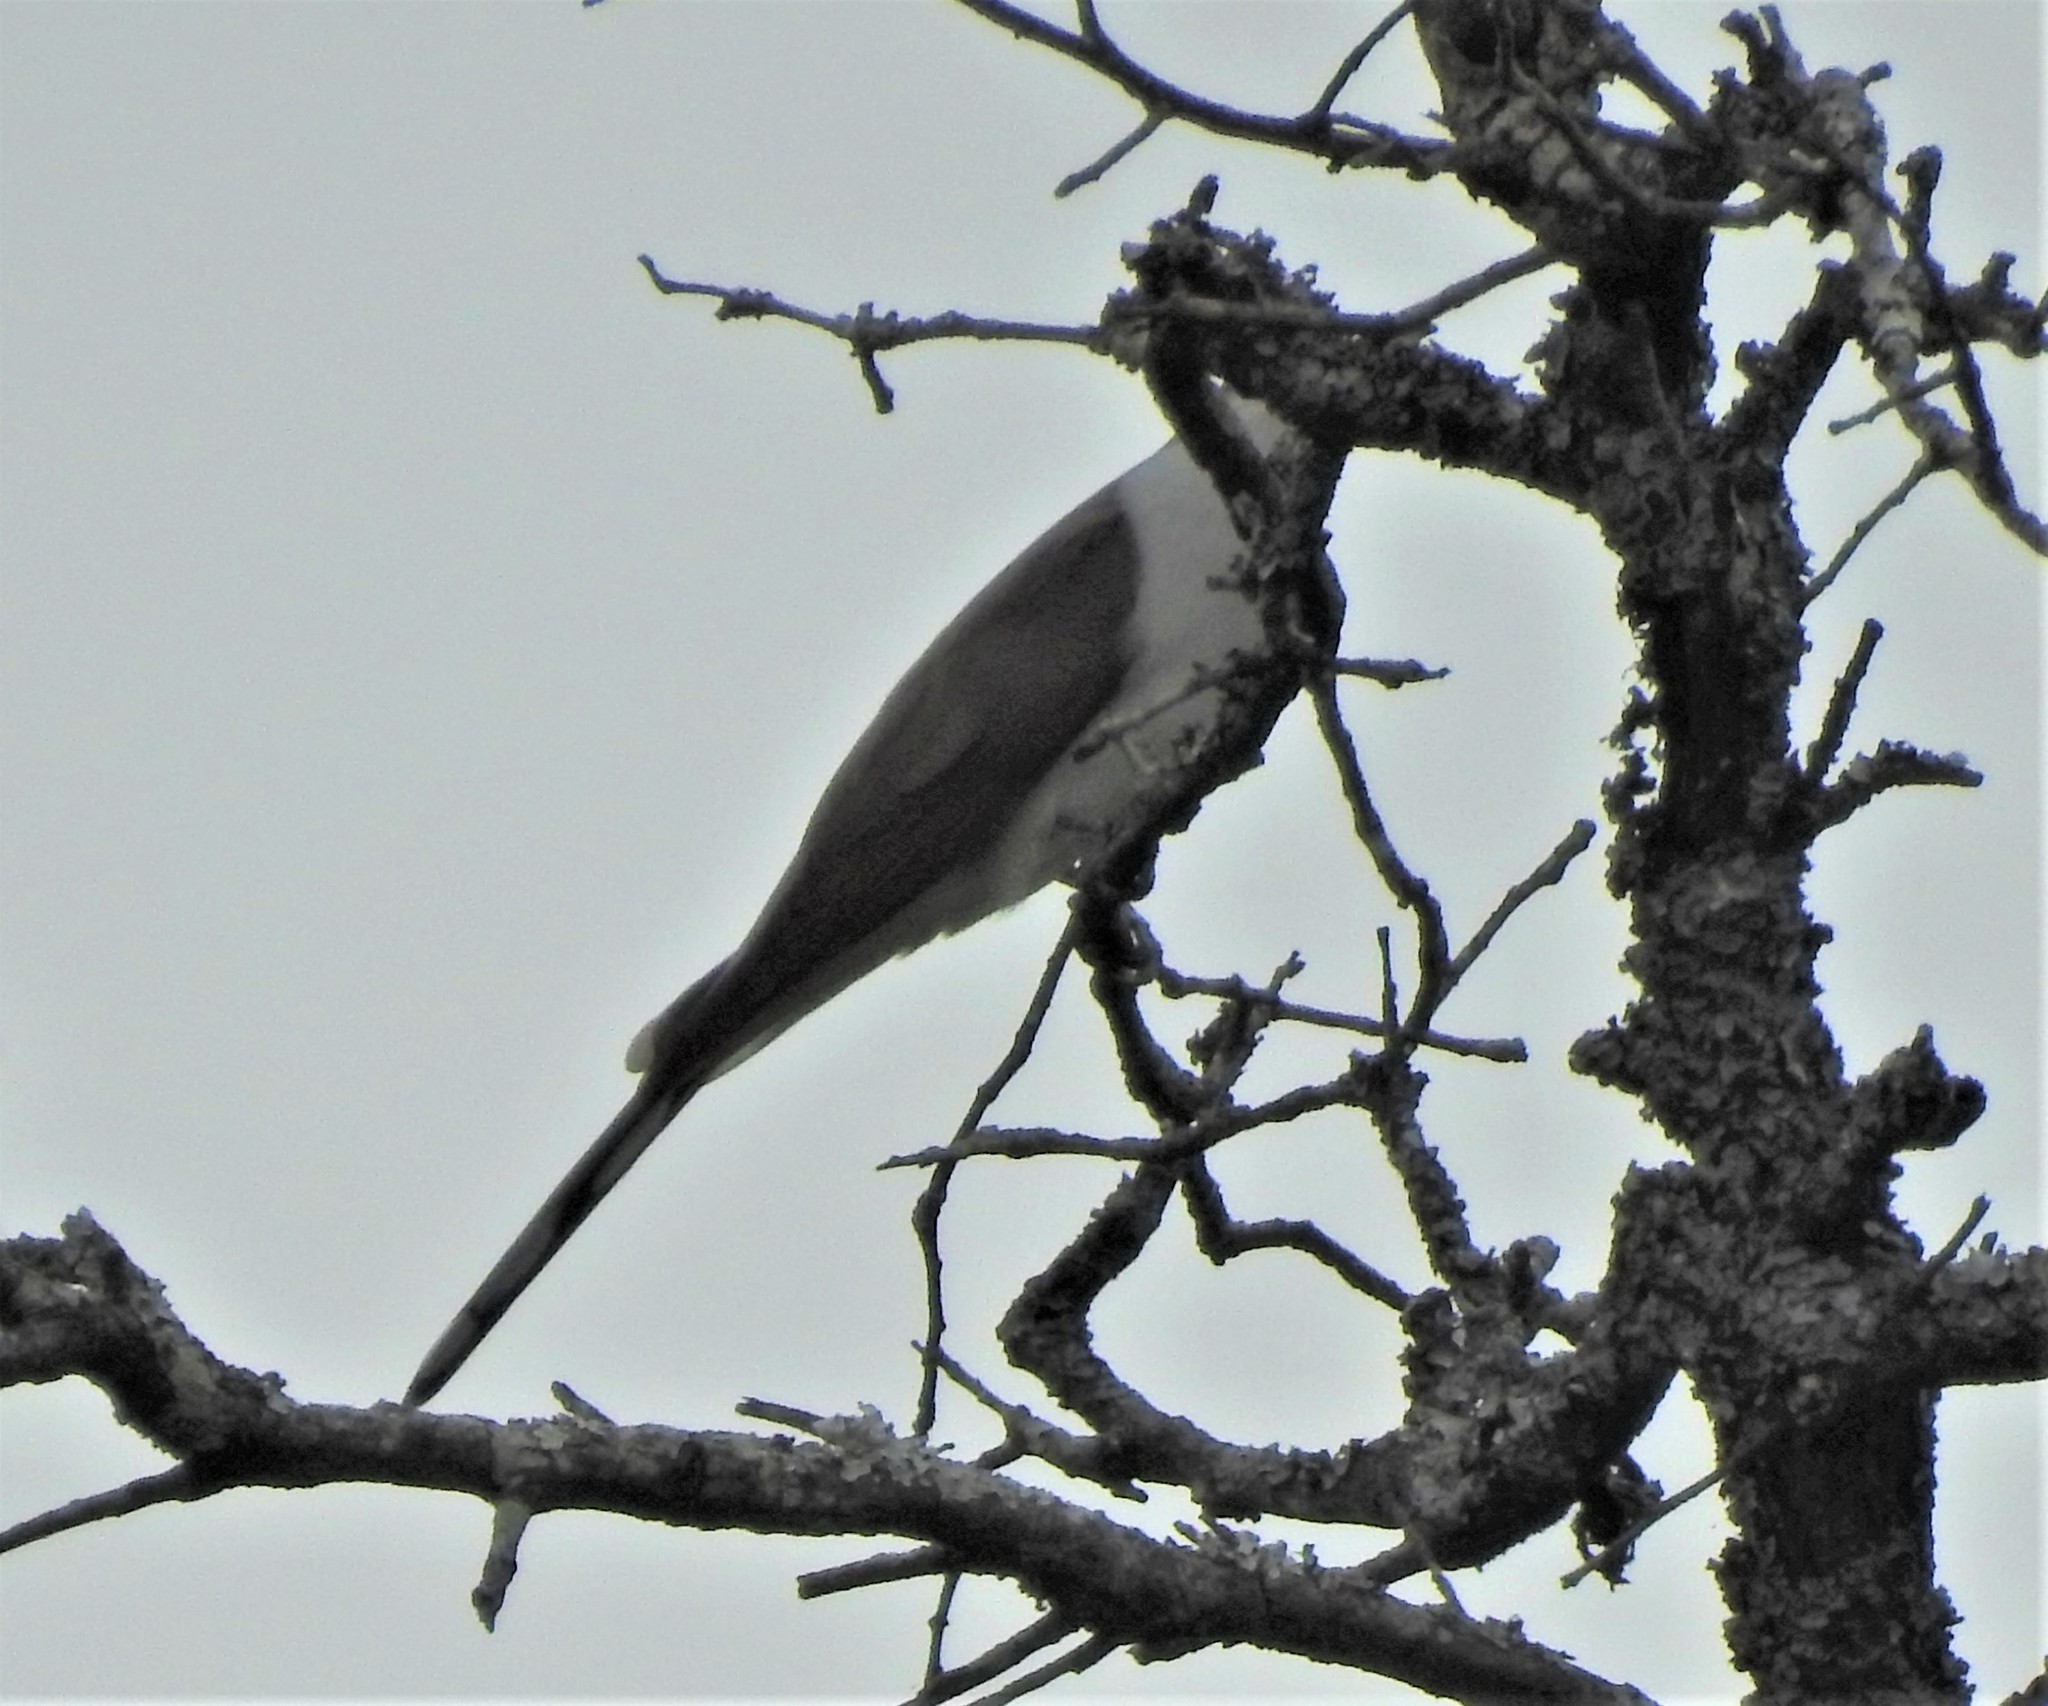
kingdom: Animalia
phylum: Chordata
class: Aves
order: Cuculiformes
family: Cuculidae
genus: Coccyzus
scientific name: Coccyzus americanus
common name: Yellow-billed cuckoo
